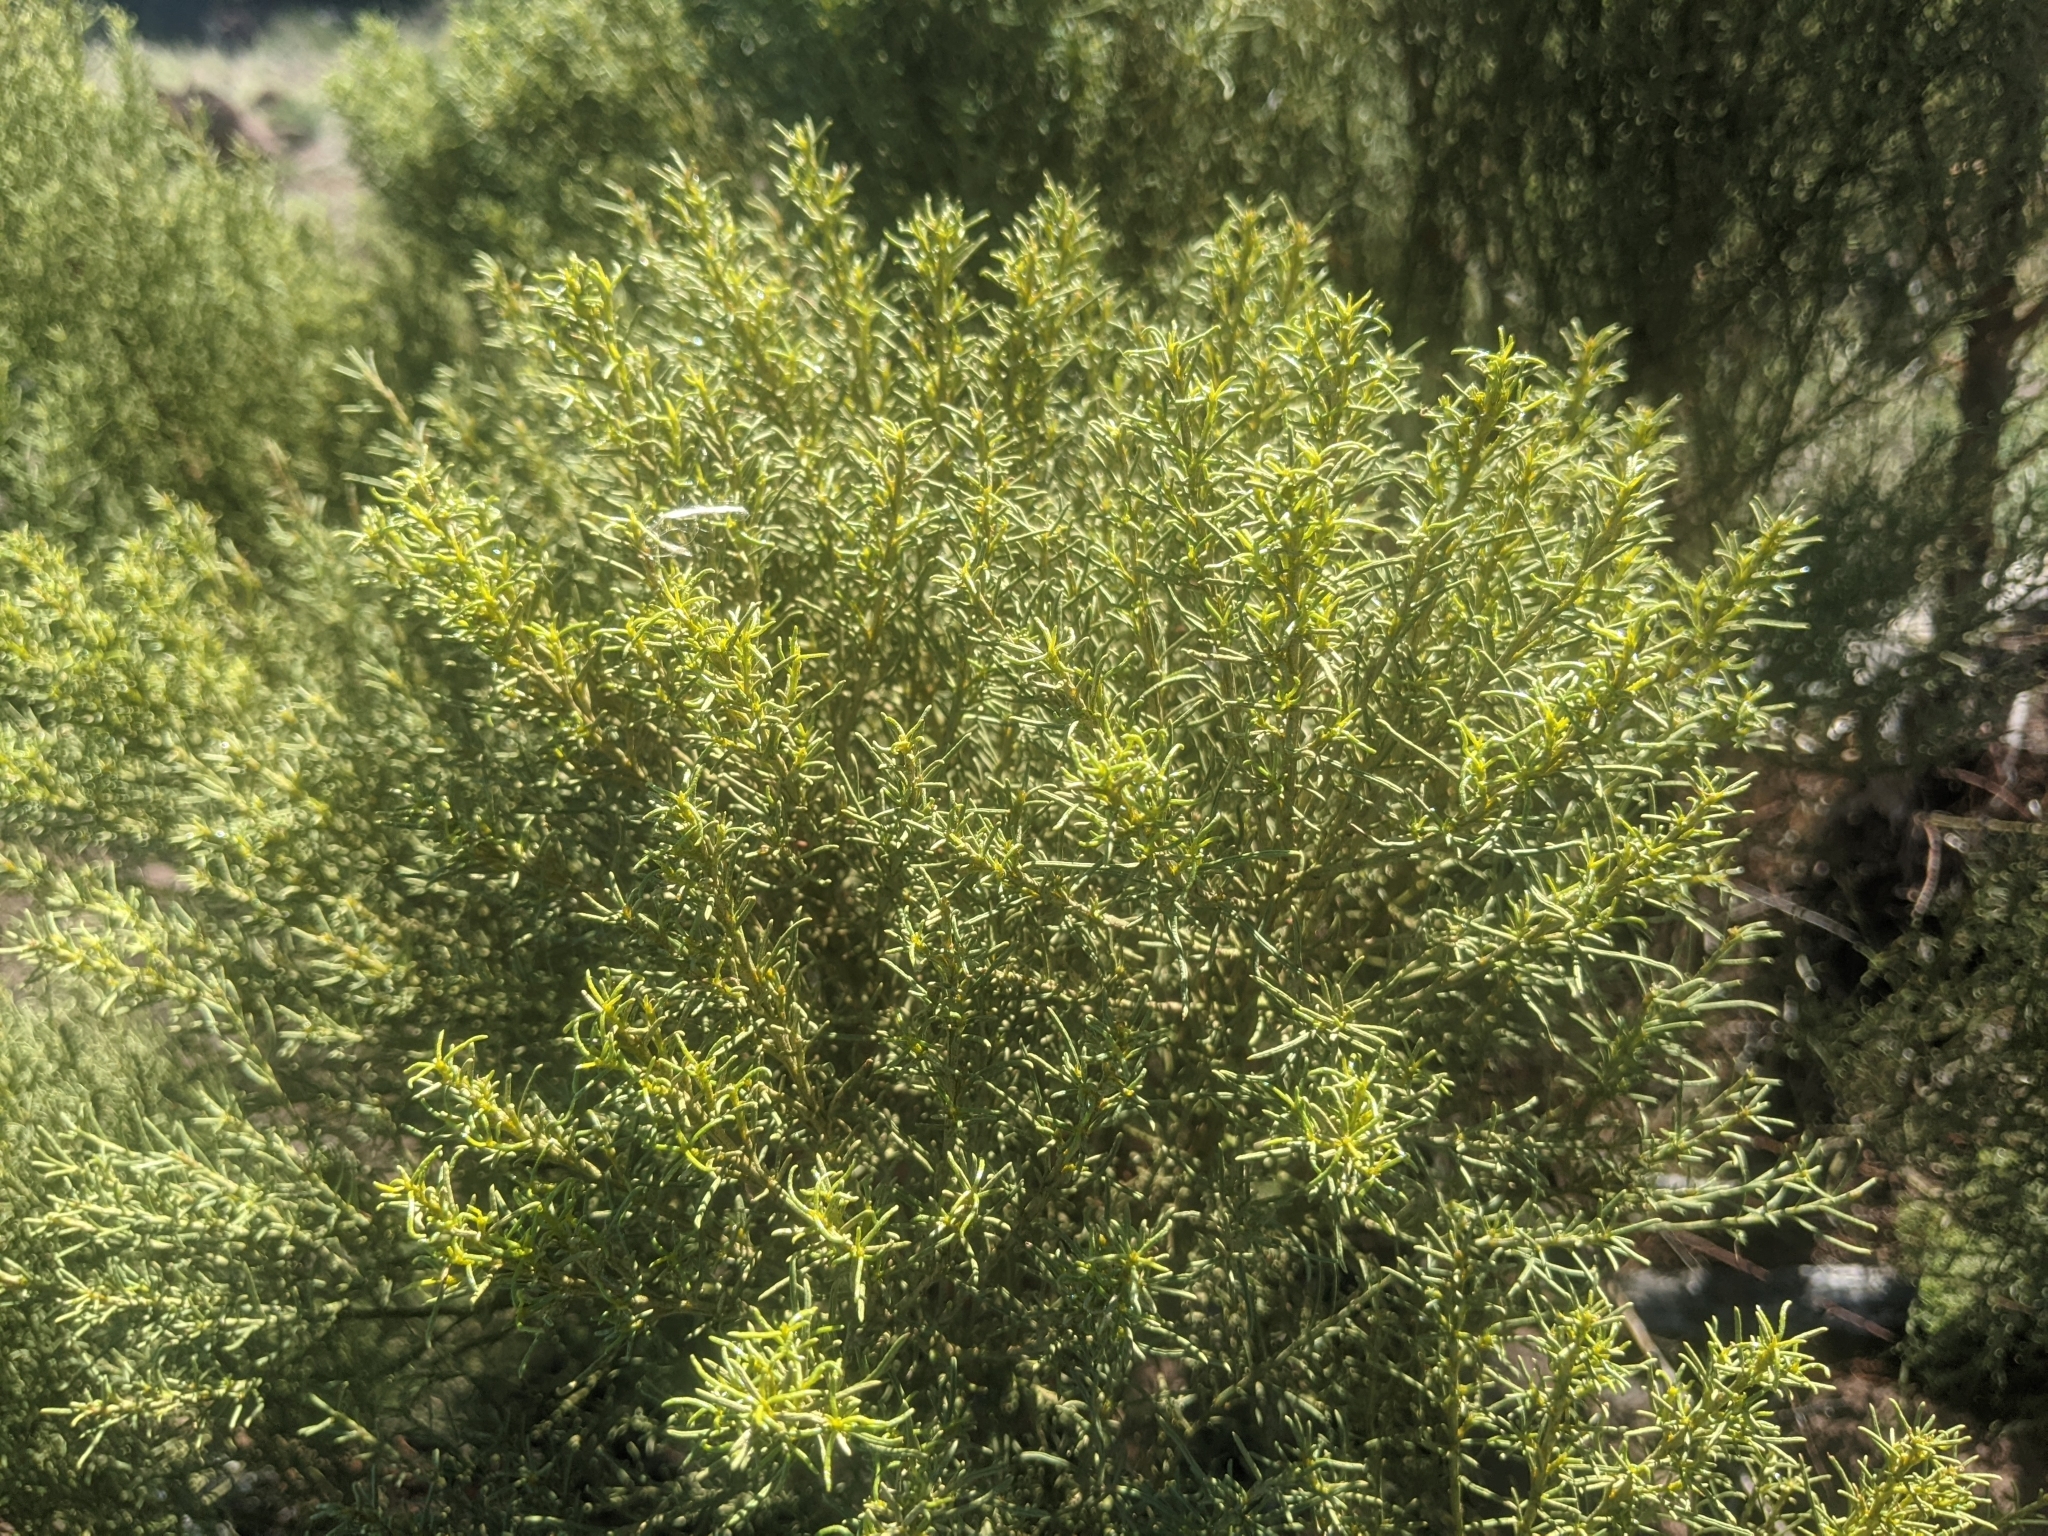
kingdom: Plantae
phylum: Tracheophyta
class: Magnoliopsida
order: Rosales
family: Rosaceae
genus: Adenostoma
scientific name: Adenostoma sparsifolium
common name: Red shank
